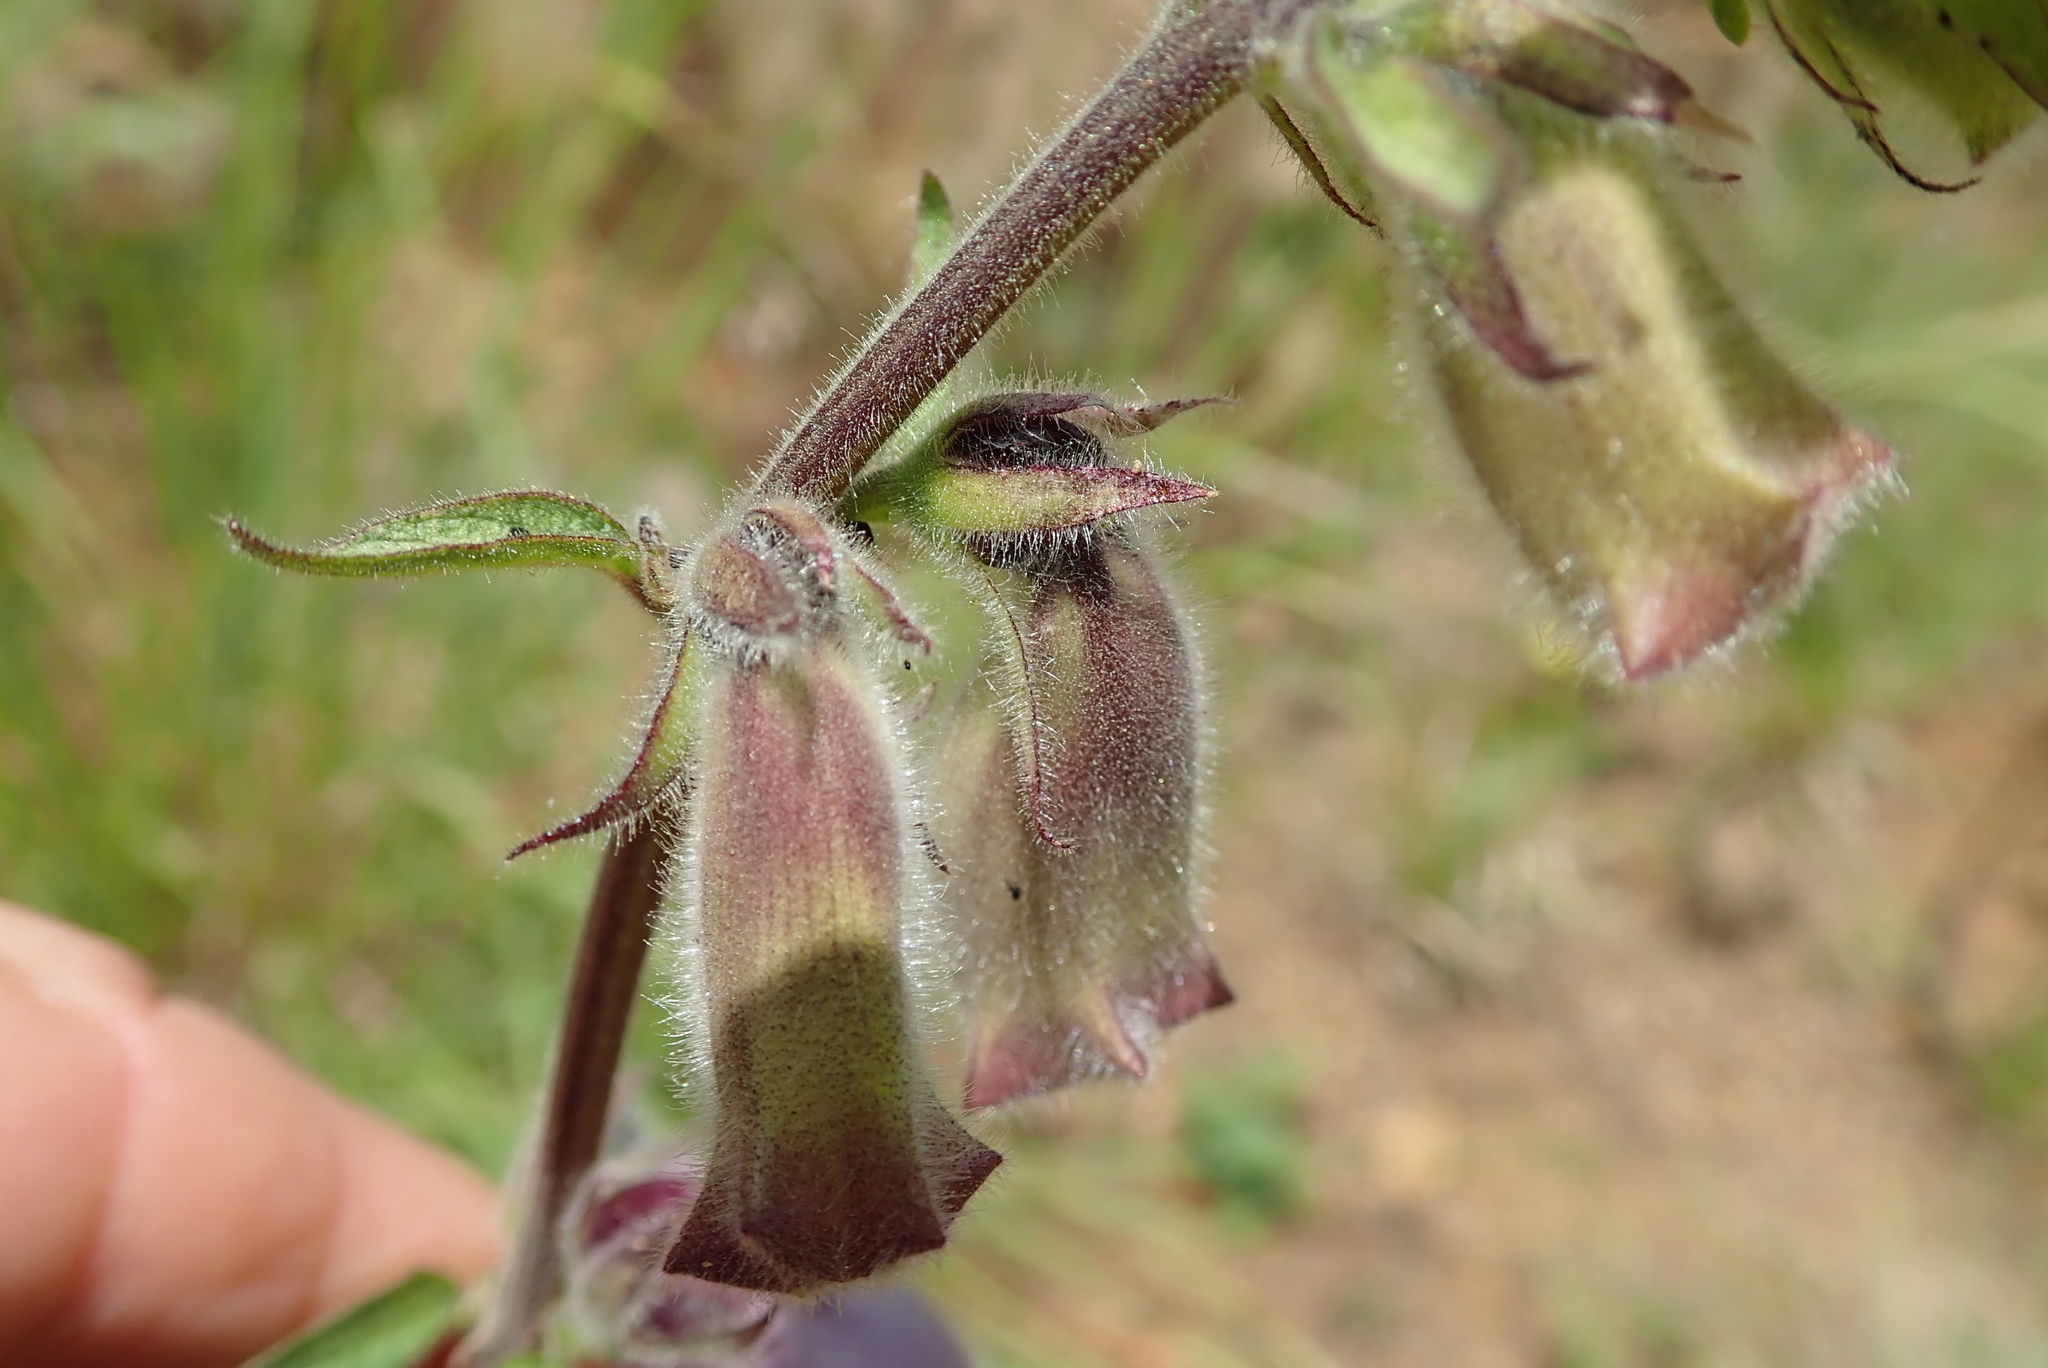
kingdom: Plantae
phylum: Tracheophyta
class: Magnoliopsida
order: Lamiales
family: Pedaliaceae
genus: Sesamum
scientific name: Sesamum trilobum
